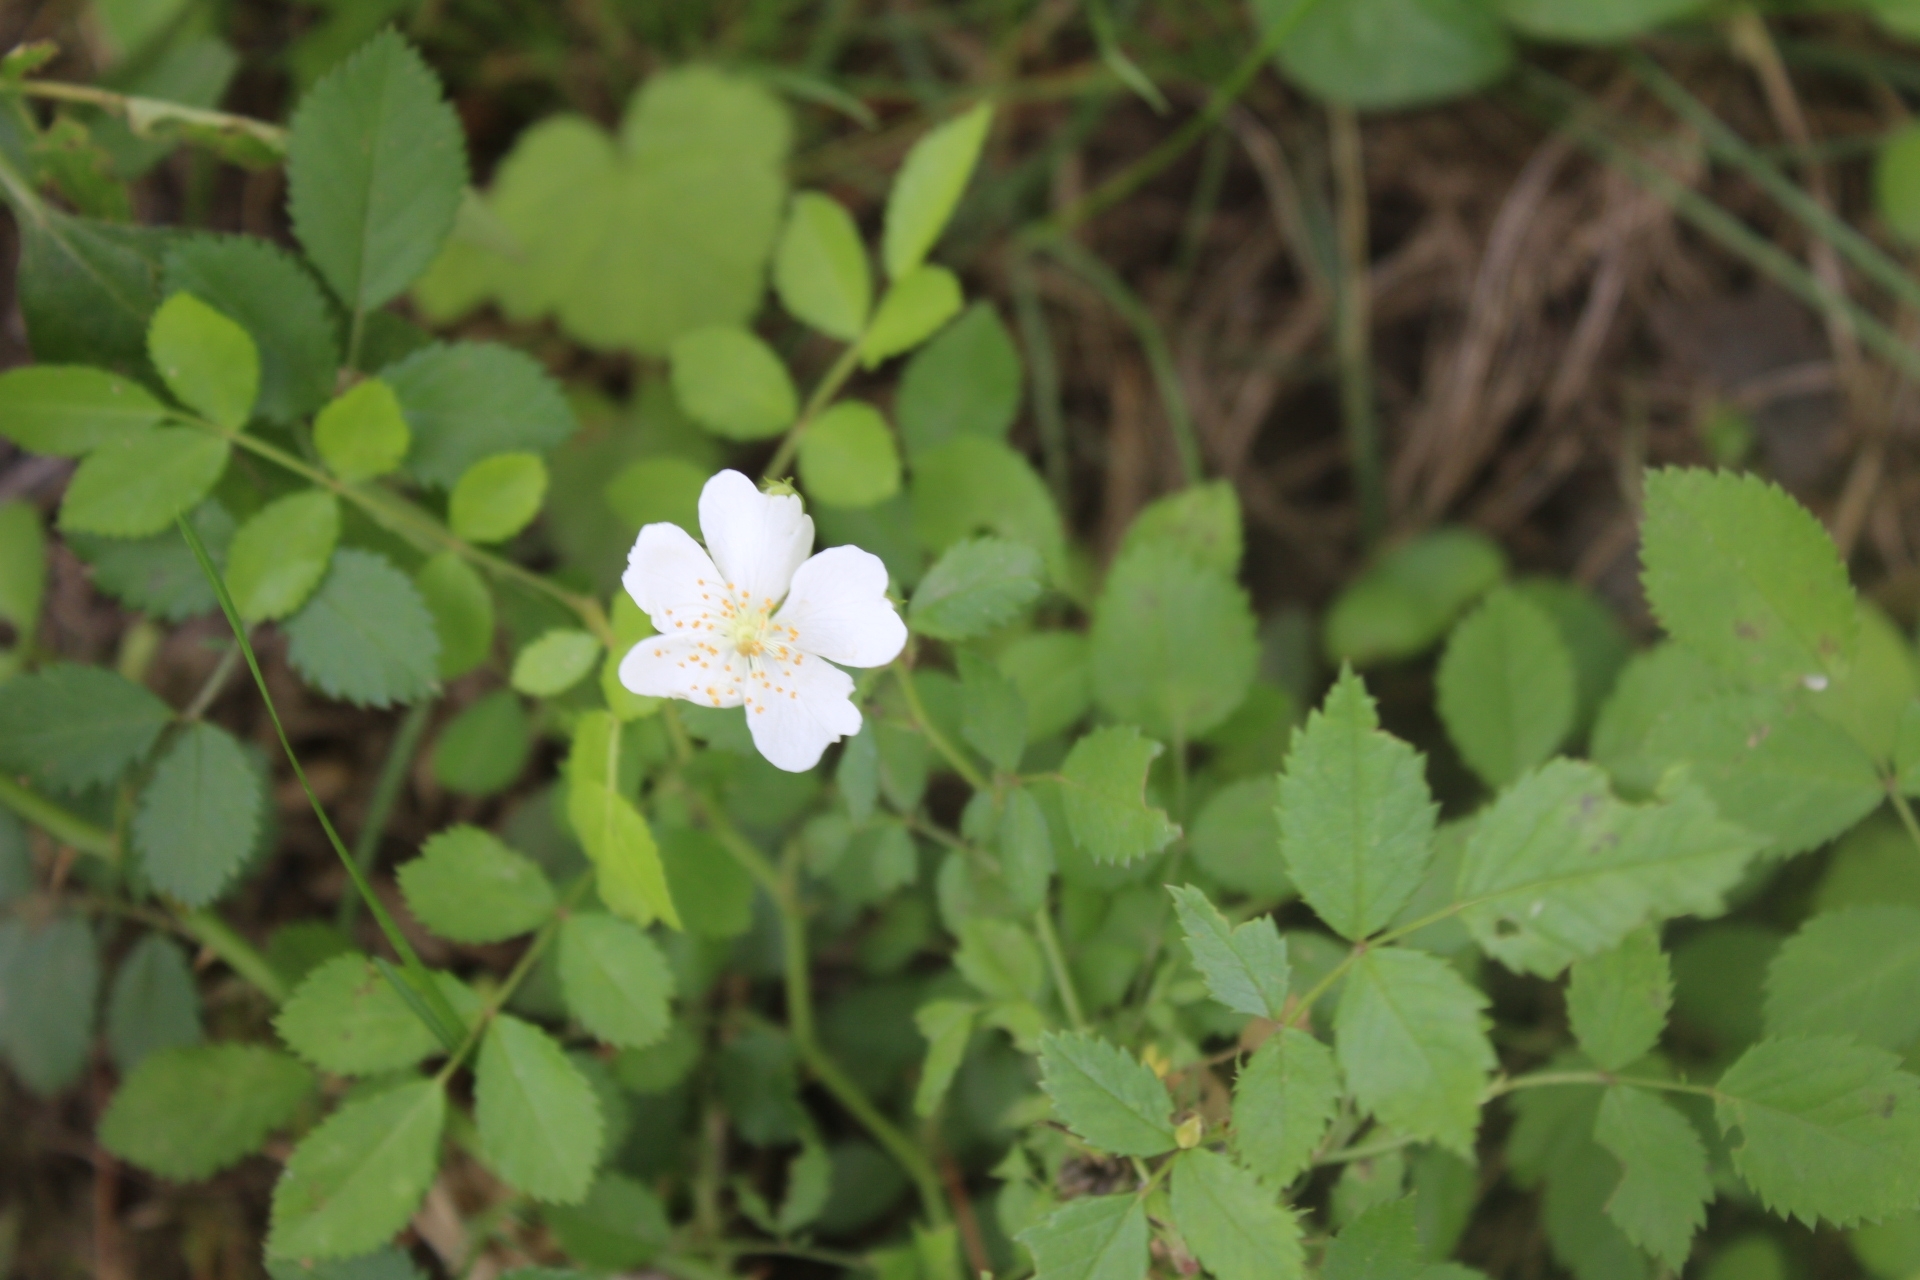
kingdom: Plantae
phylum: Tracheophyta
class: Magnoliopsida
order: Rosales
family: Rosaceae
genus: Rosa
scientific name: Rosa multiflora
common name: Multiflora rose
